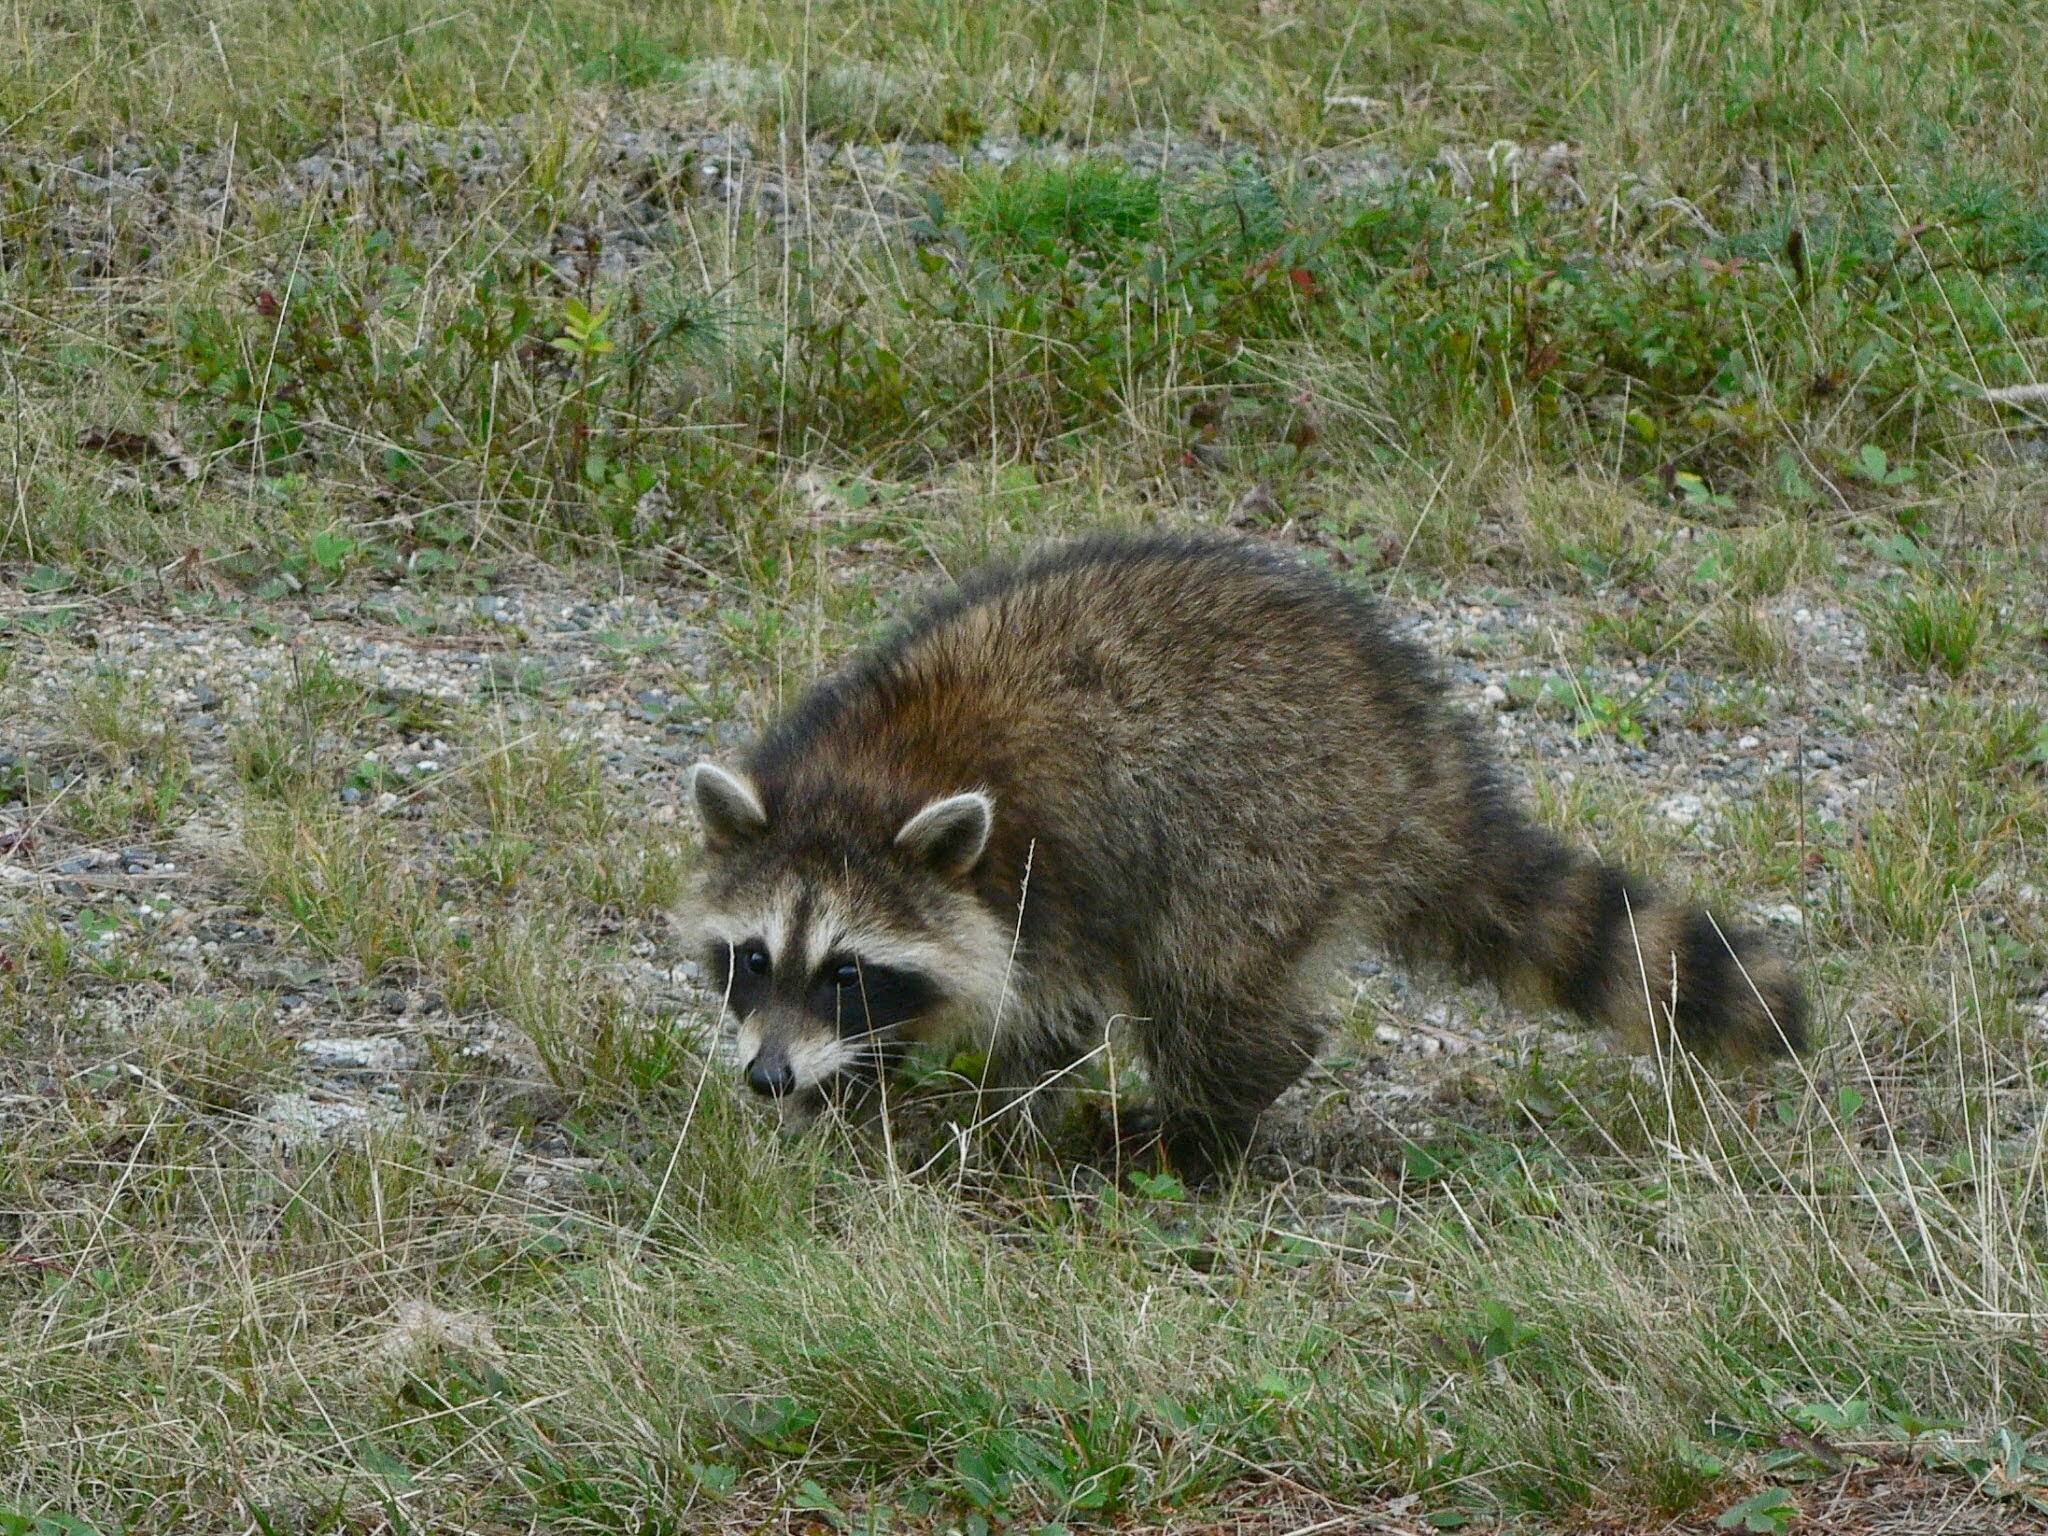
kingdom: Animalia
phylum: Chordata
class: Mammalia
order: Carnivora
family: Procyonidae
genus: Procyon
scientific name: Procyon lotor
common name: Raccoon
